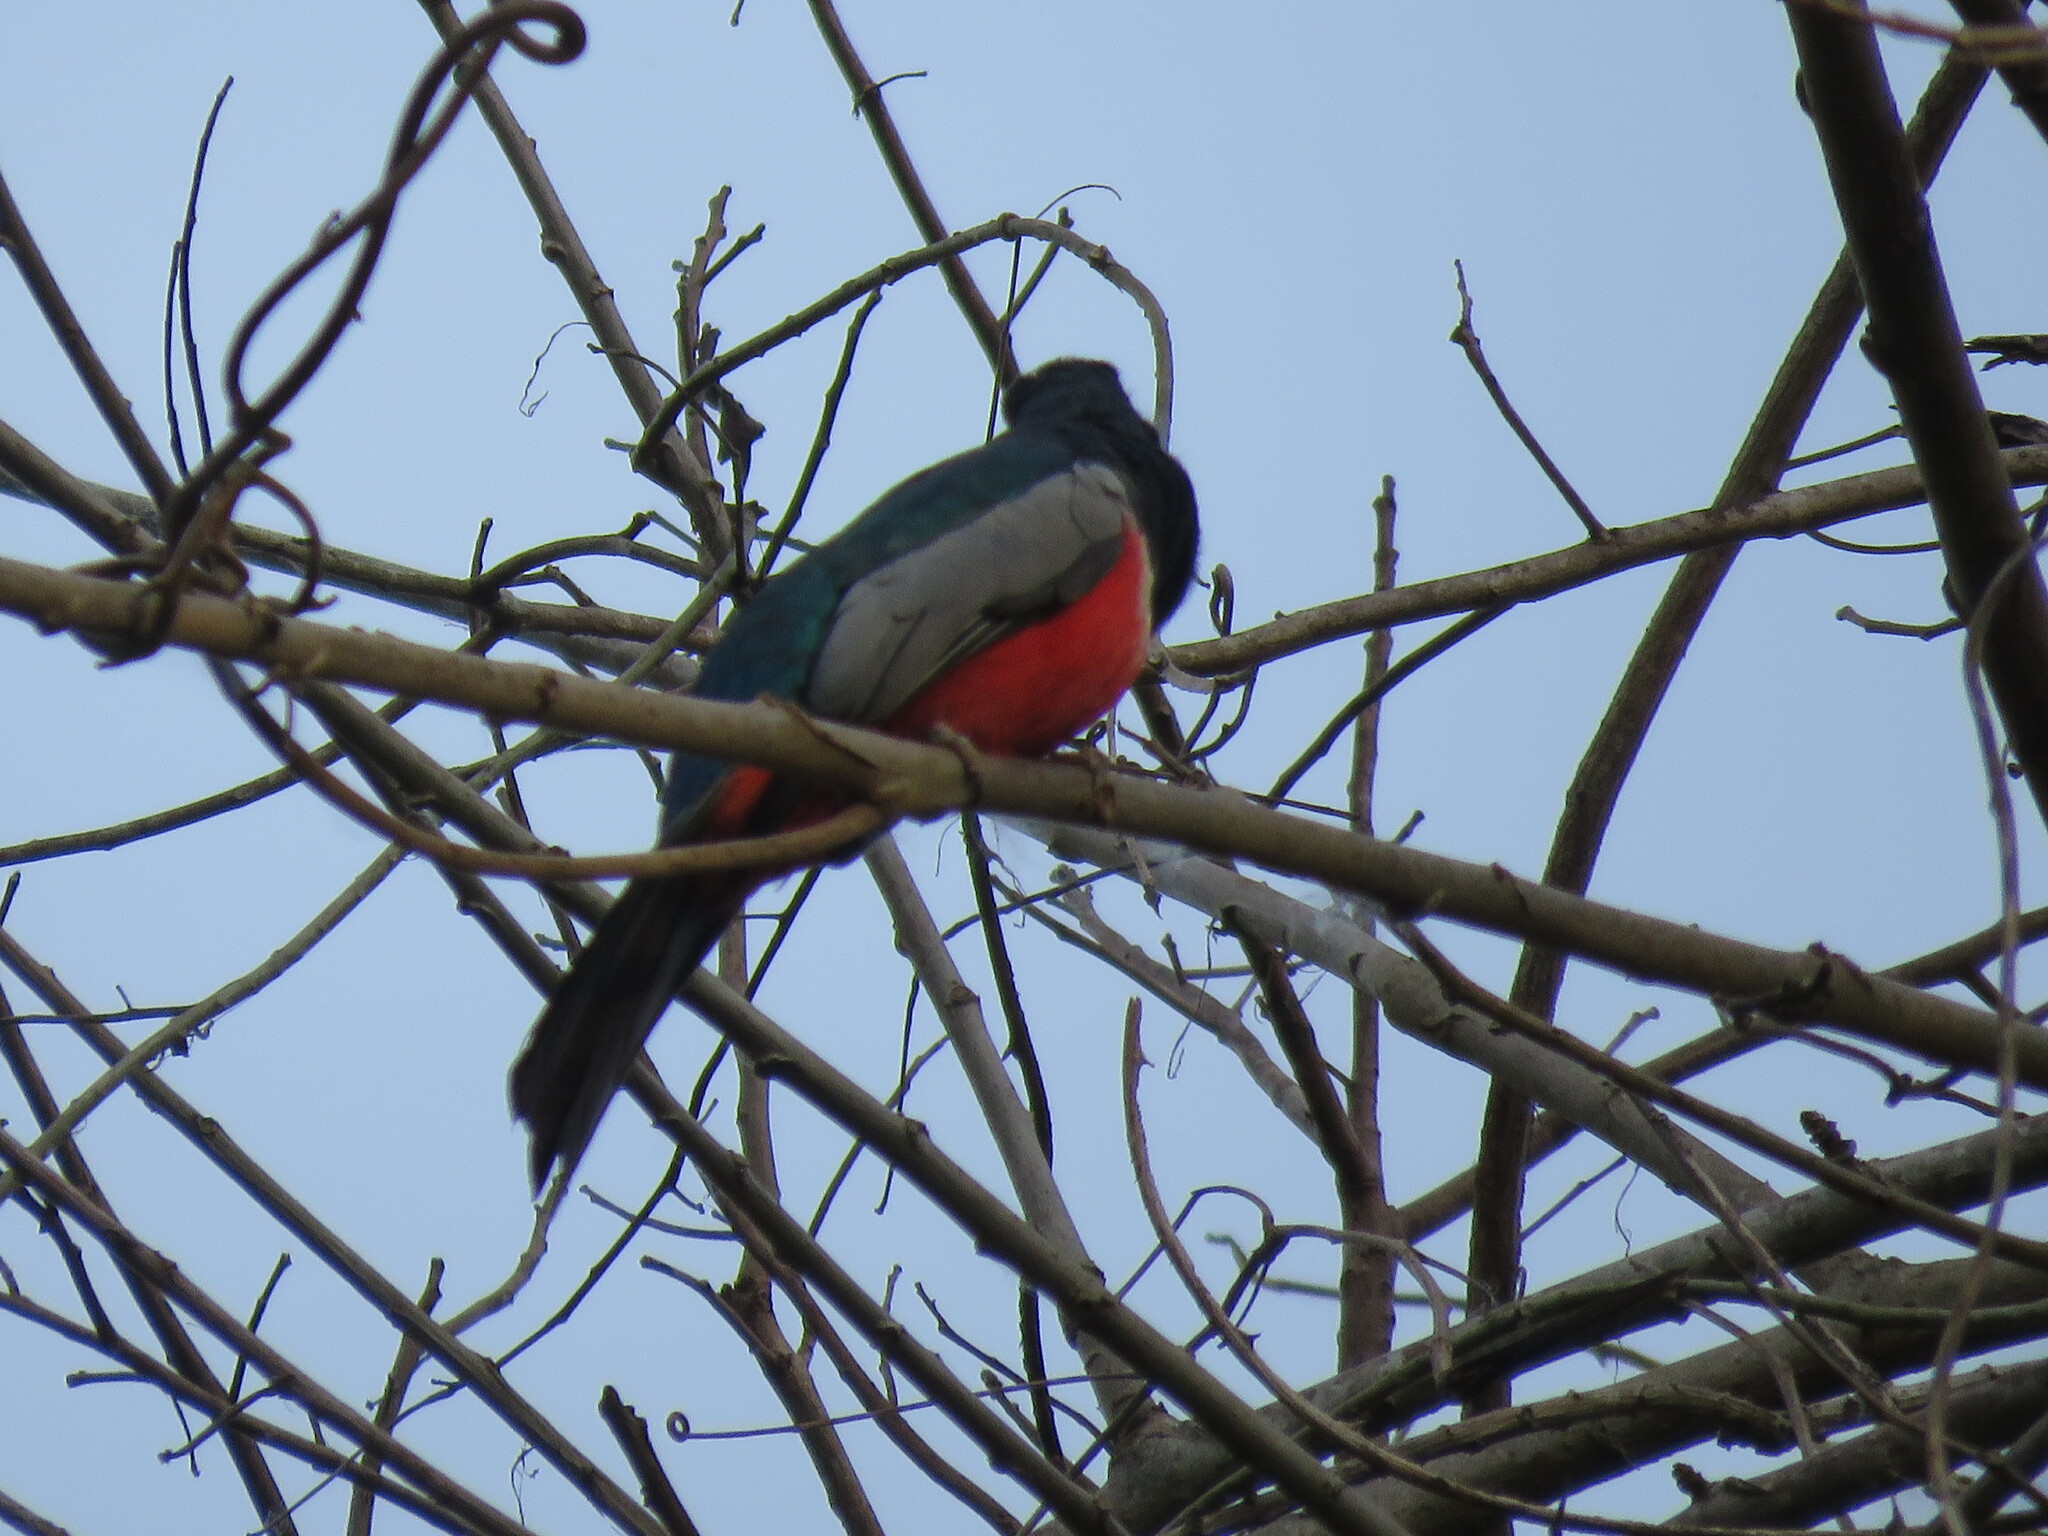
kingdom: Animalia
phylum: Chordata
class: Aves
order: Trogoniformes
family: Trogonidae
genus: Trogon
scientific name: Trogon melanurus
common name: Black-tailed trogon
